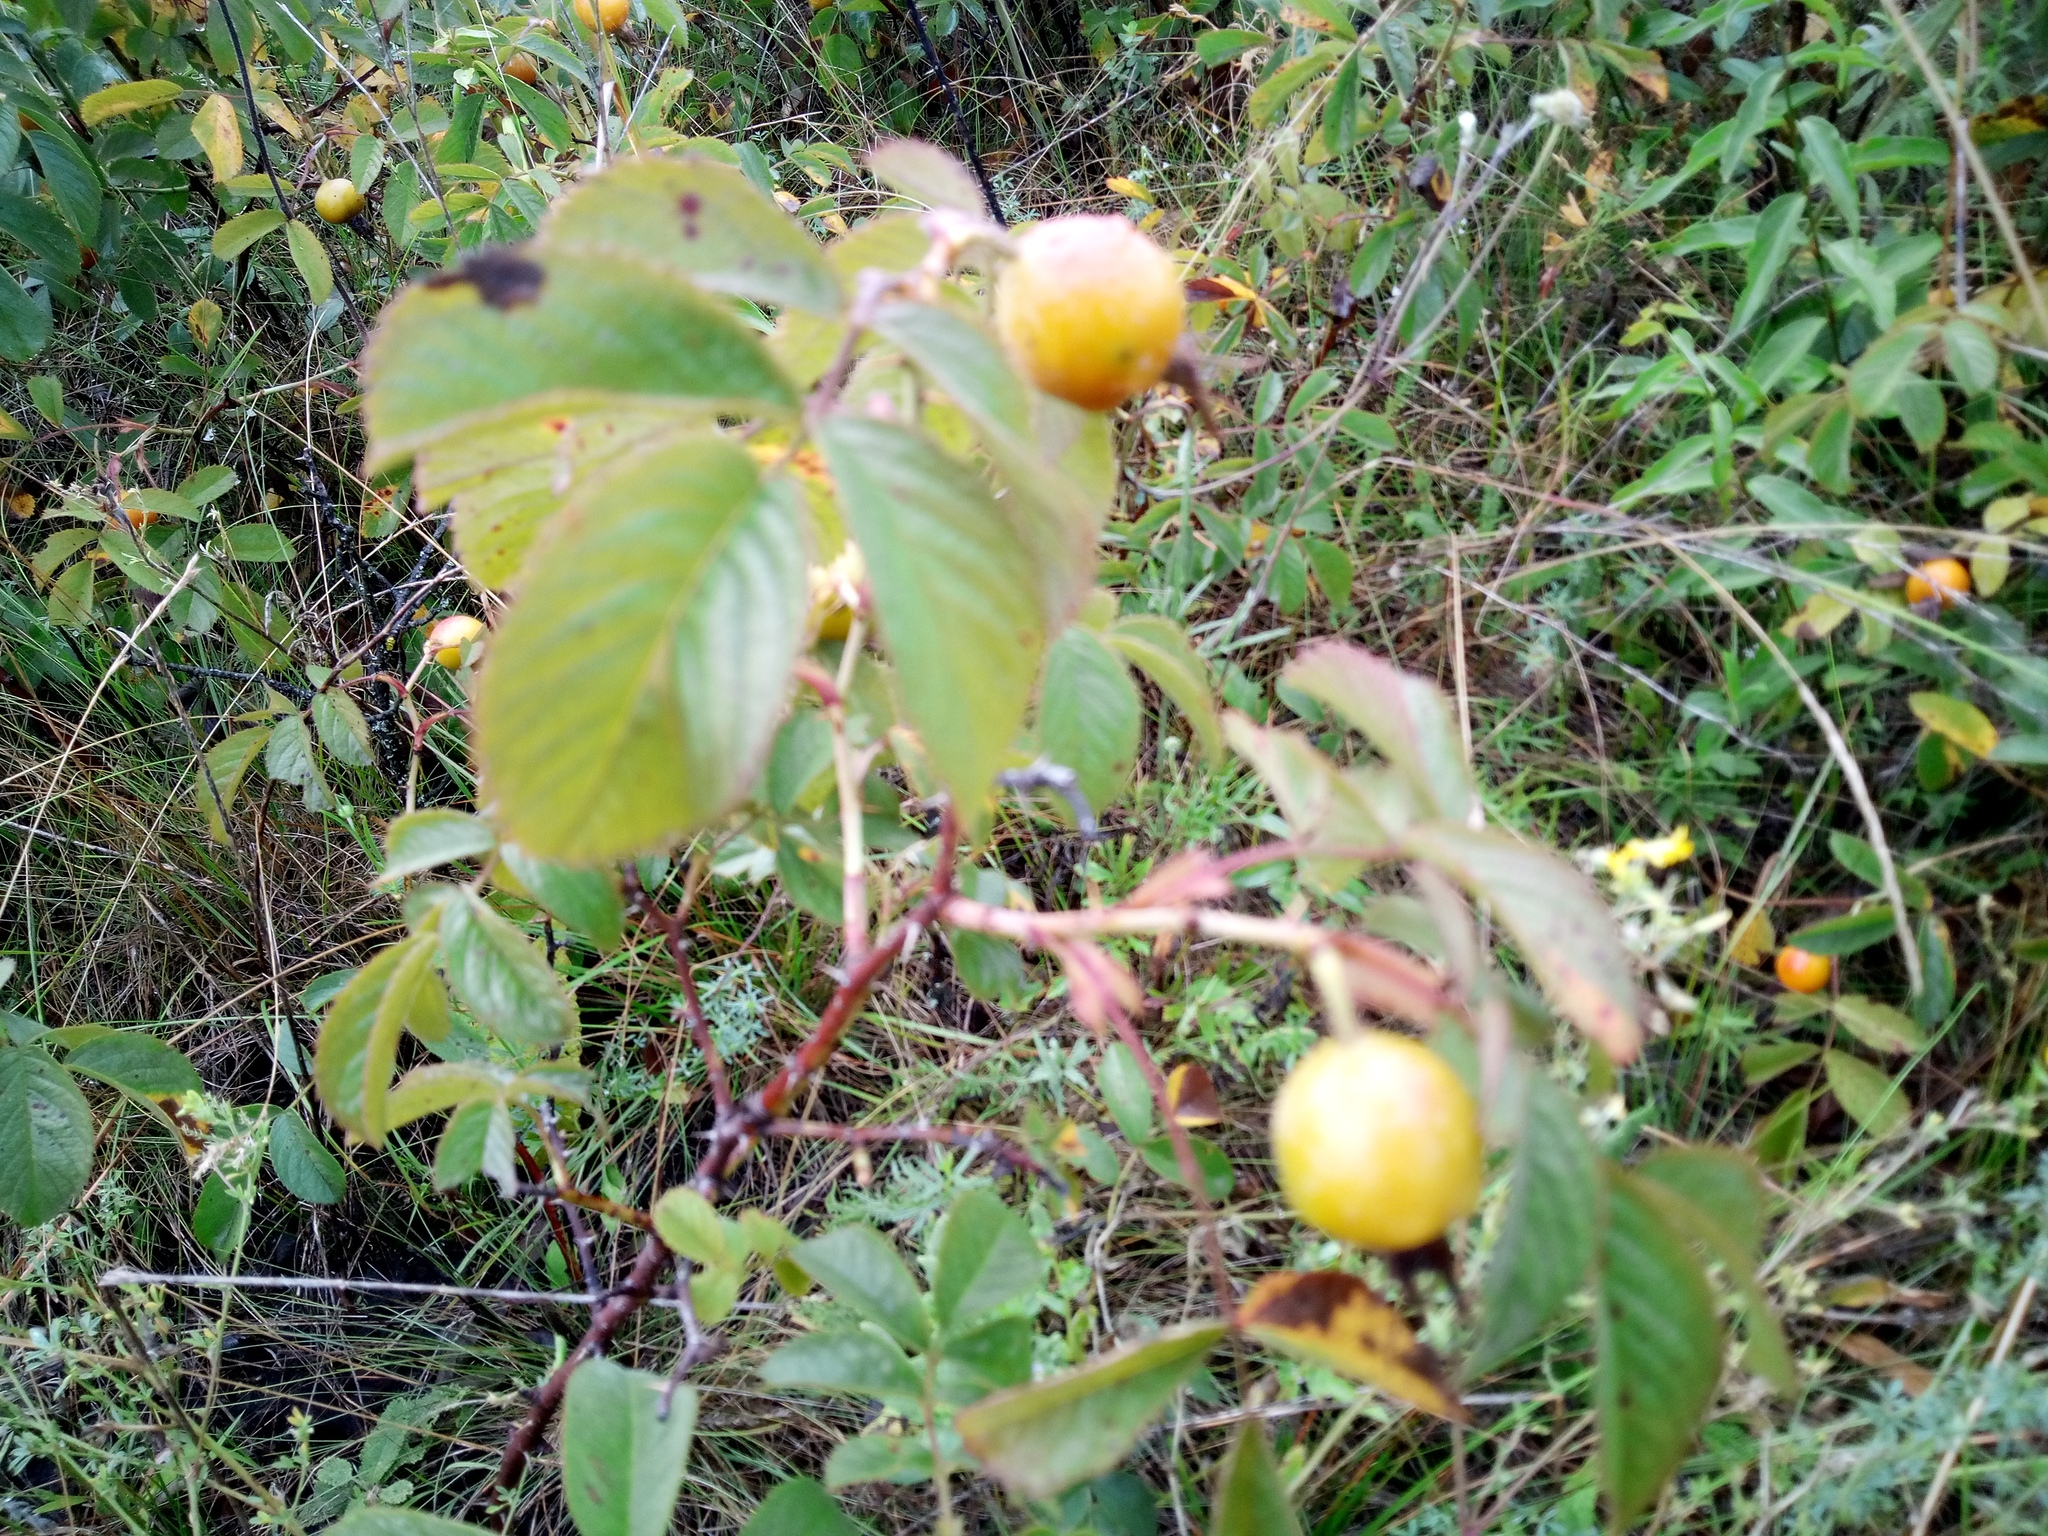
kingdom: Plantae
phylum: Tracheophyta
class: Magnoliopsida
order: Rosales
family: Rosaceae
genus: Rosa
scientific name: Rosa villosa
